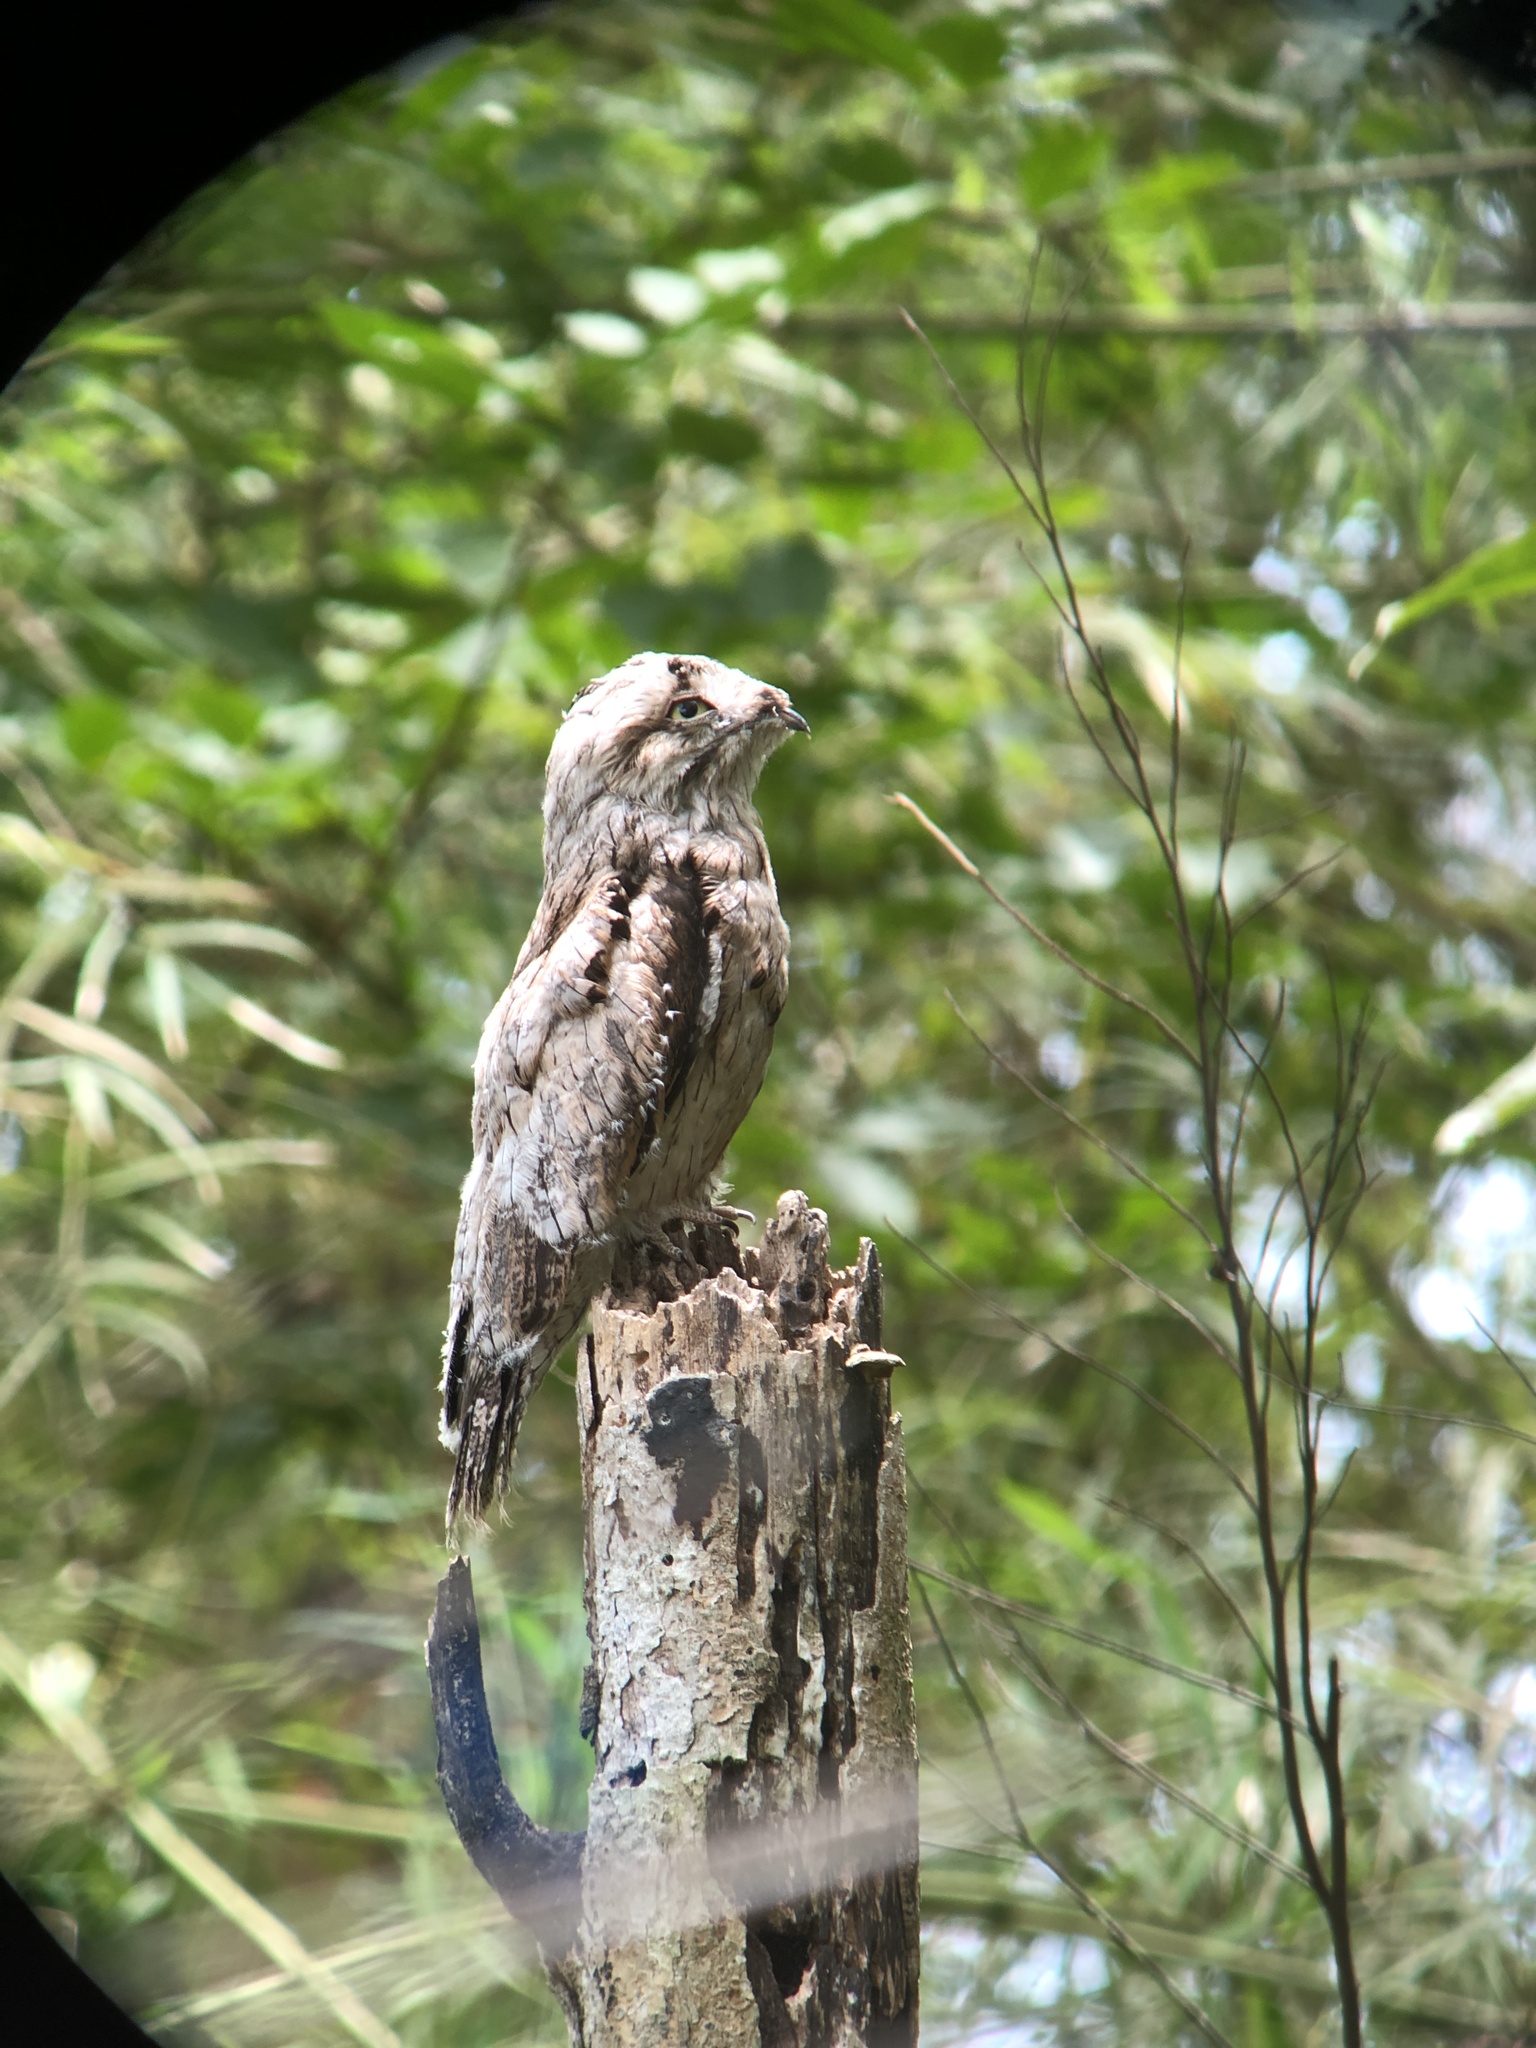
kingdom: Animalia
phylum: Chordata
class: Aves
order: Nyctibiiformes
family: Nyctibiidae
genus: Nyctibius
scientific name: Nyctibius griseus
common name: Common potoo
